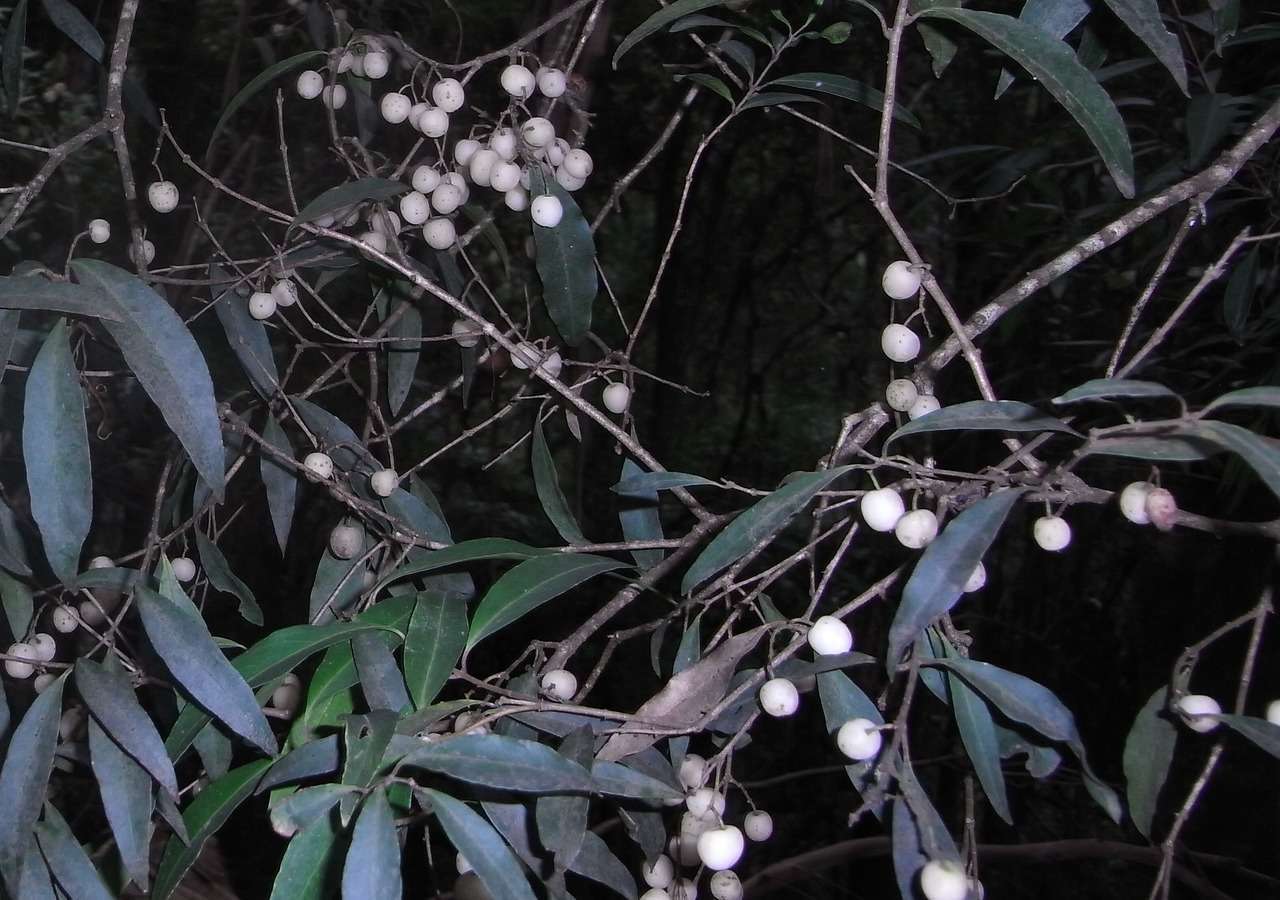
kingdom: Plantae
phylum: Tracheophyta
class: Magnoliopsida
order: Lamiales
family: Oleaceae
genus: Notelaea
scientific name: Notelaea ligustrina
